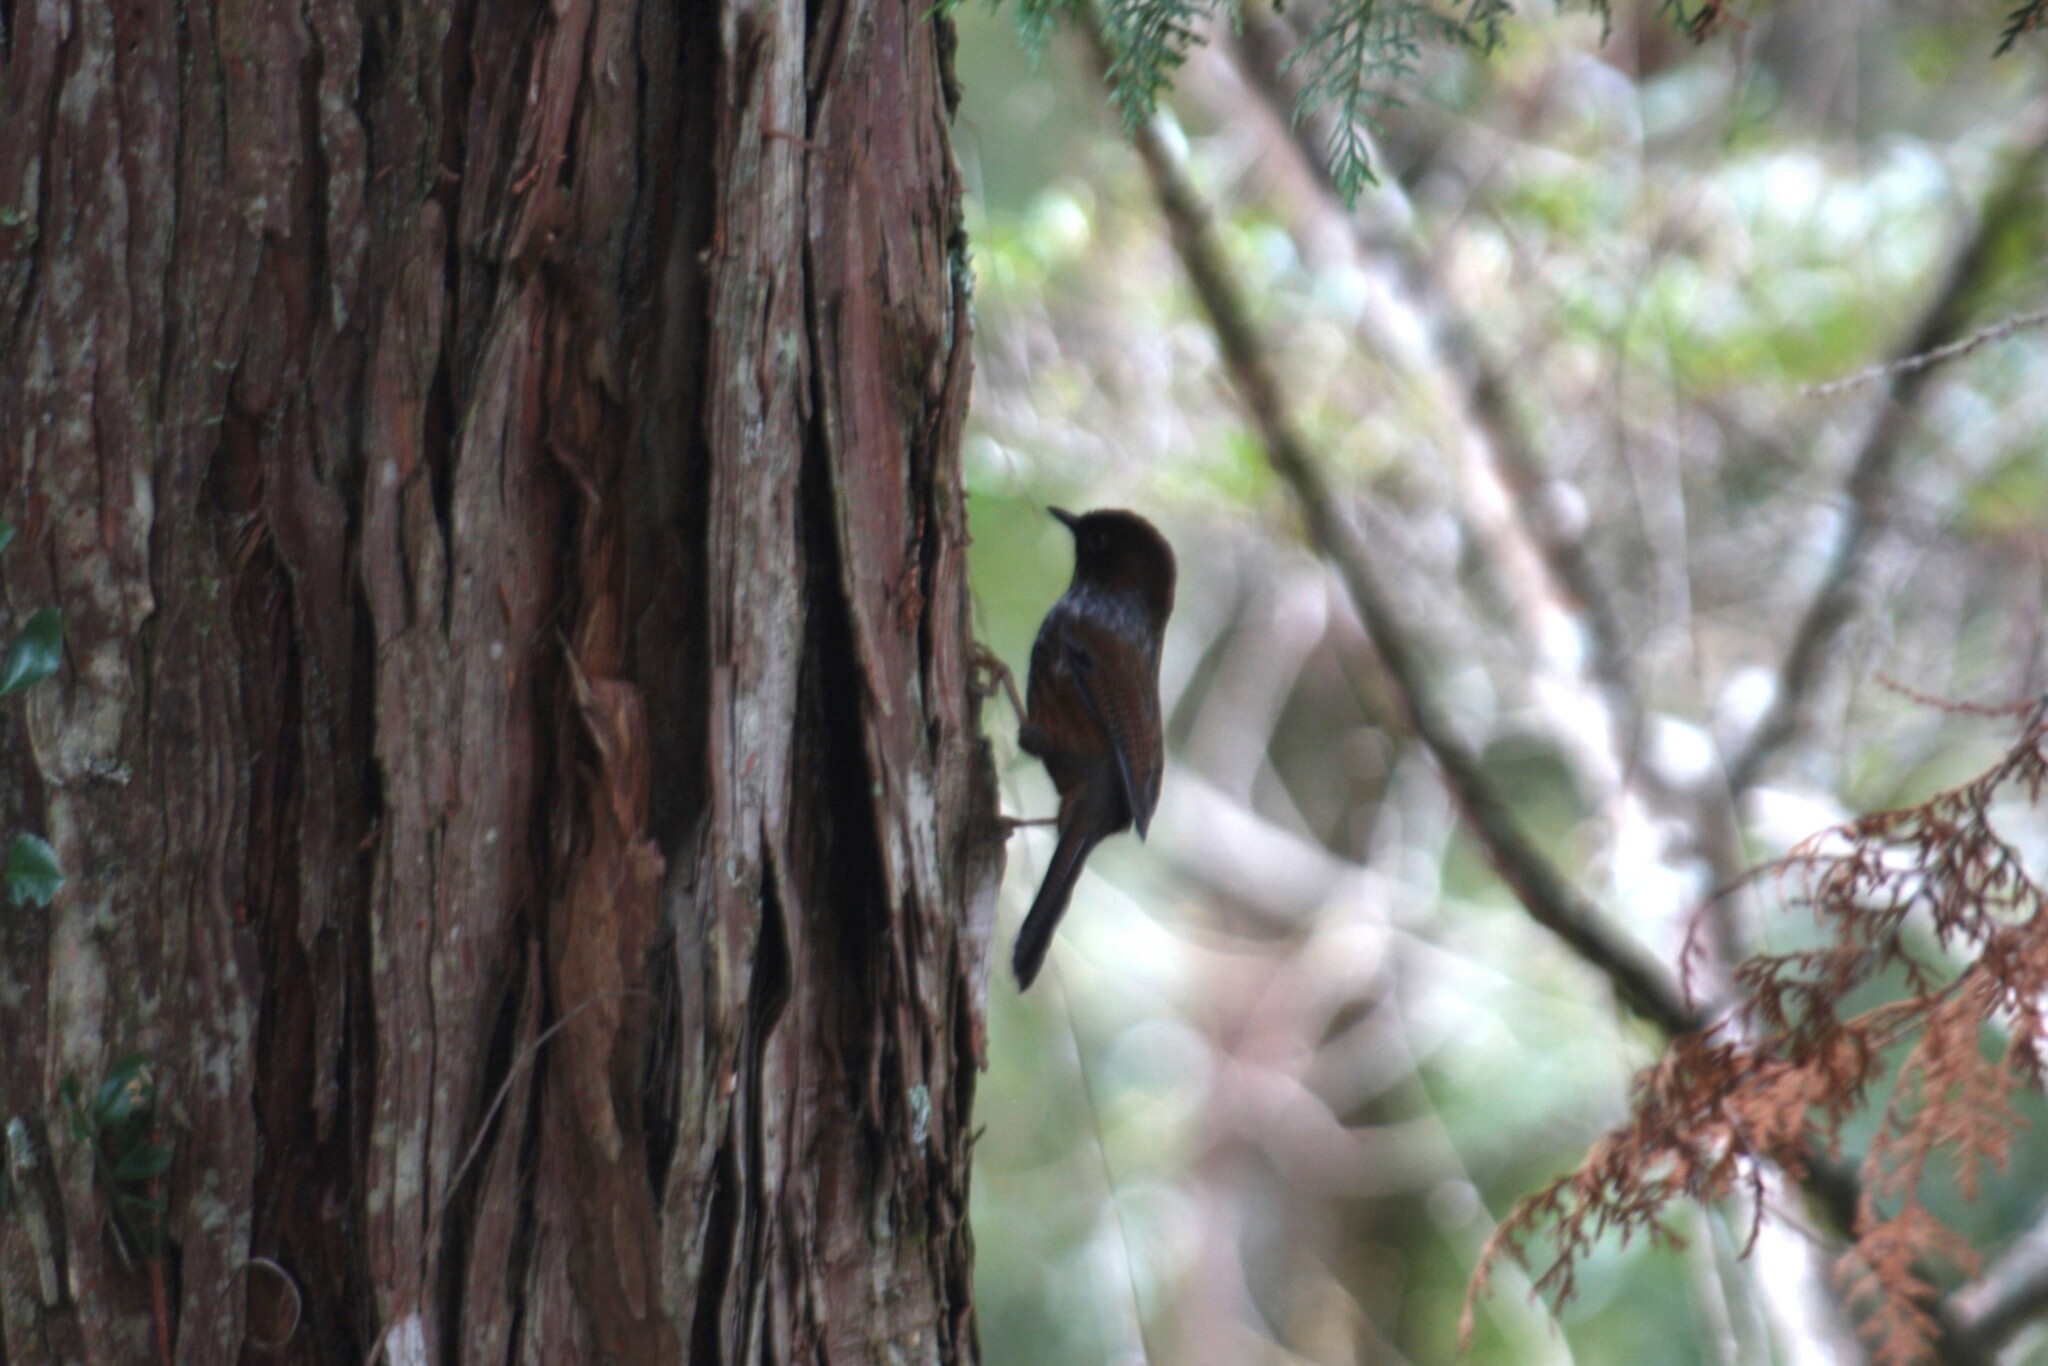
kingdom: Animalia
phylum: Chordata
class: Aves
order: Passeriformes
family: Leiothrichidae
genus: Actinodura
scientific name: Actinodura morrisoniana
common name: Taiwan barwing
